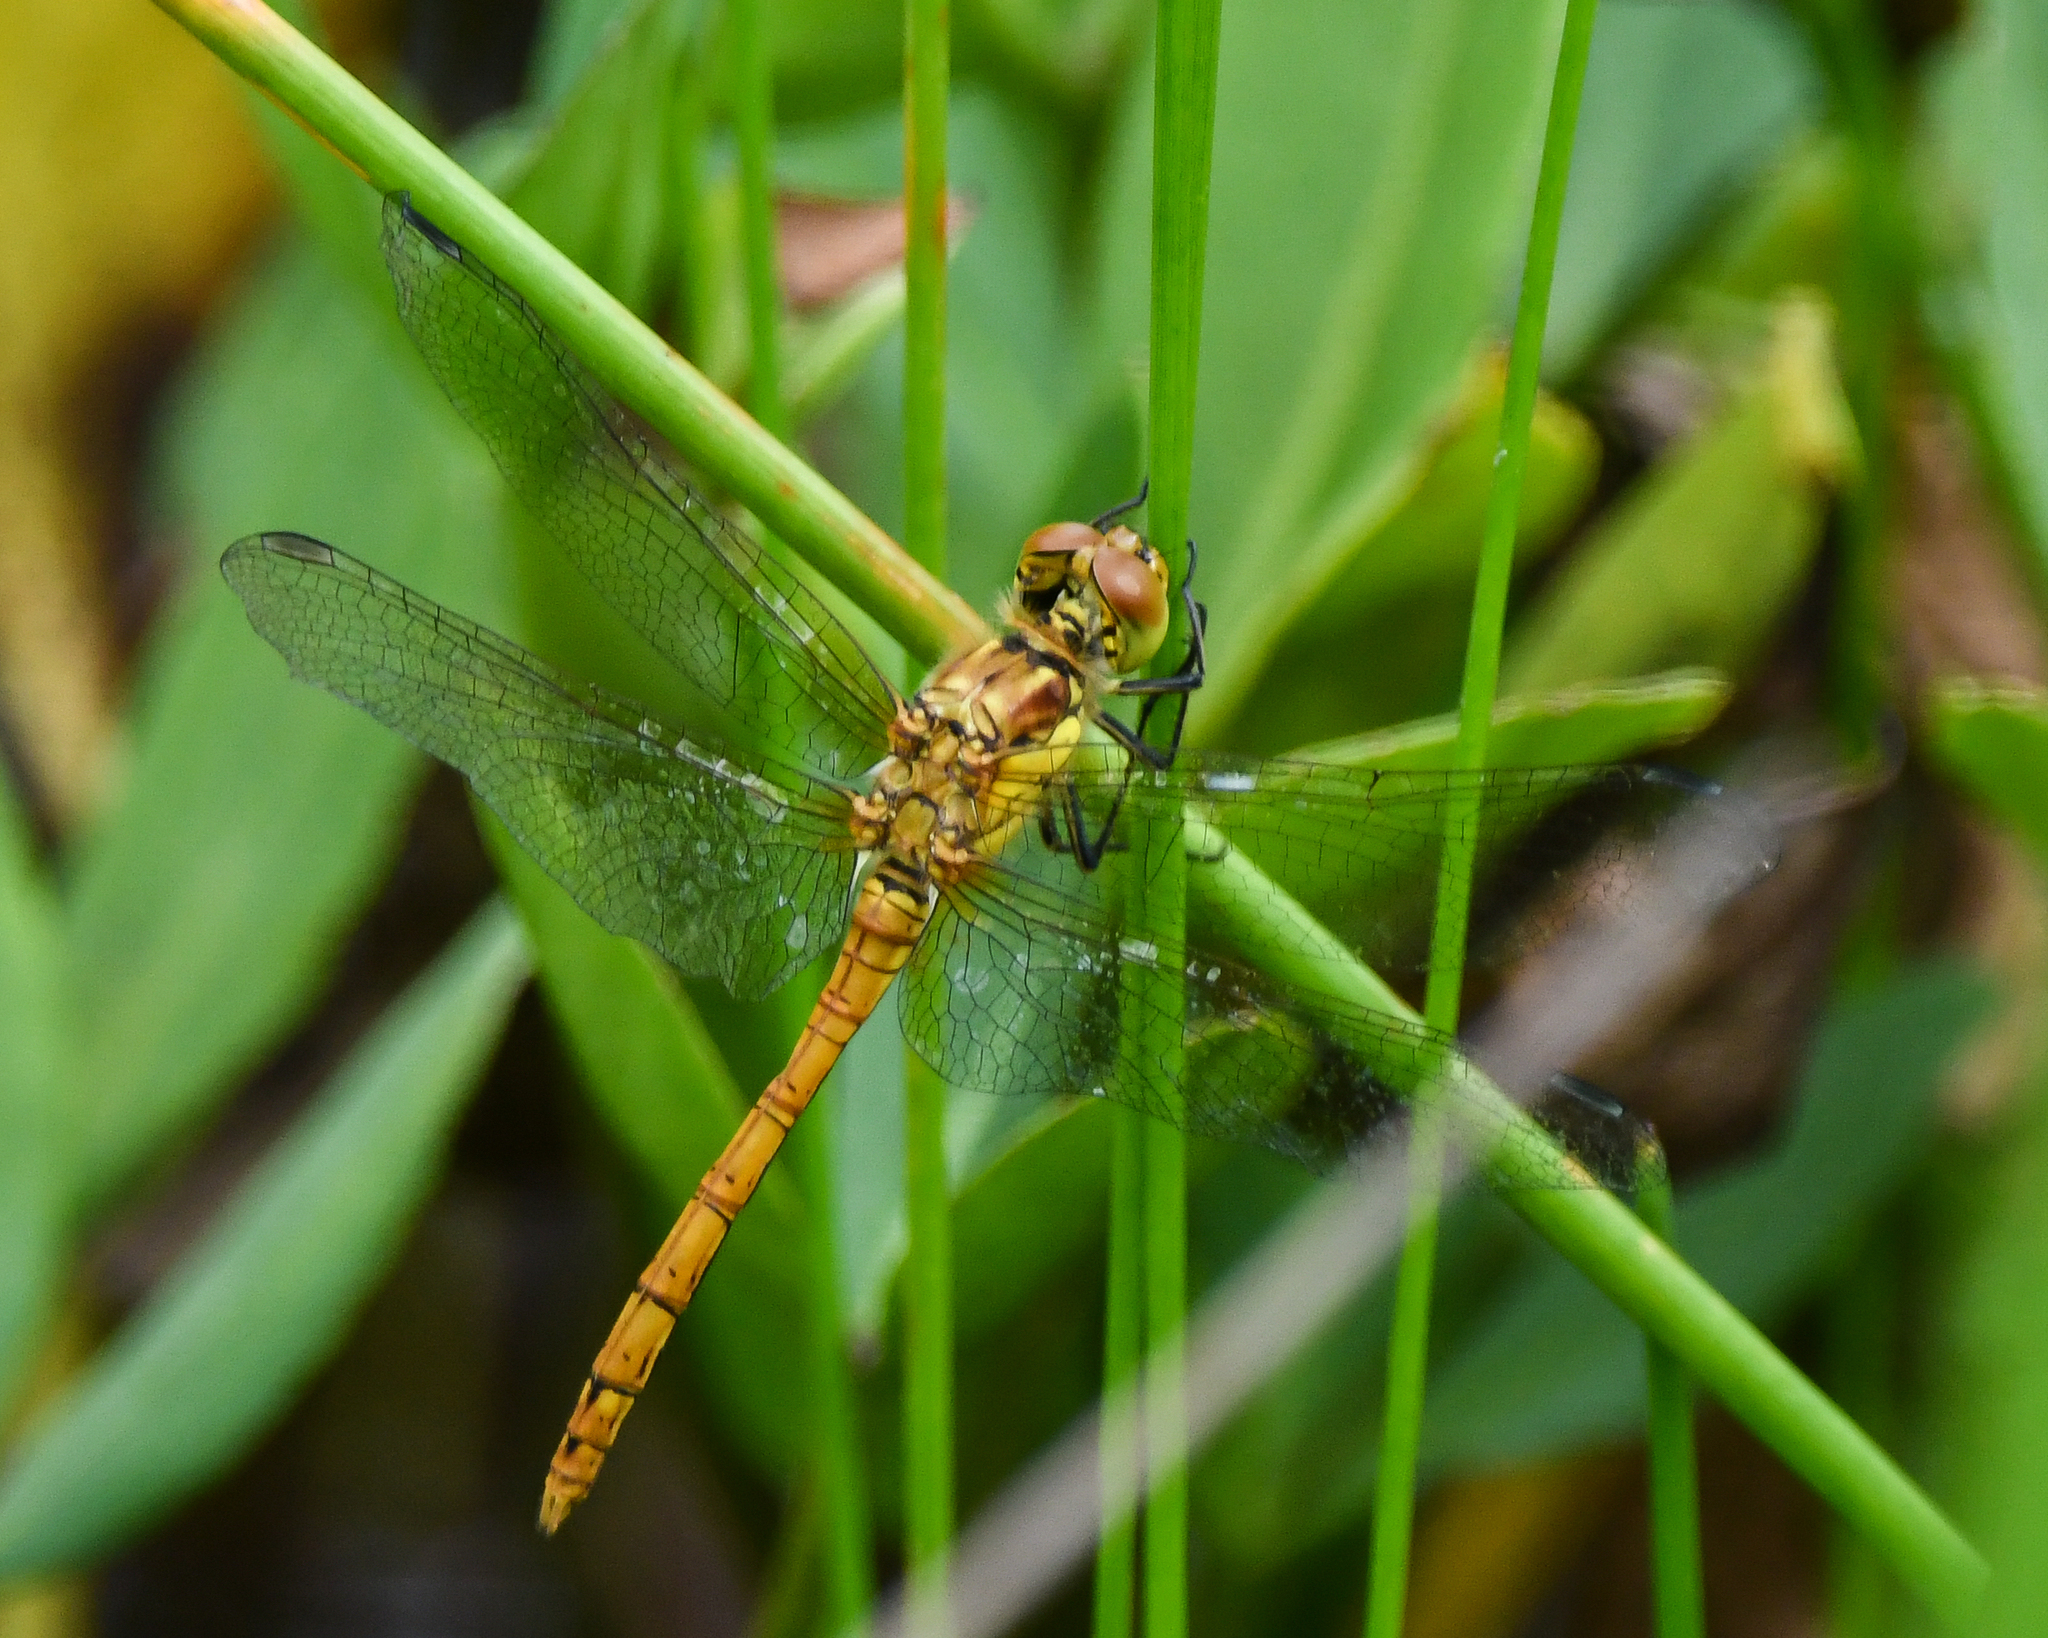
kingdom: Animalia
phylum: Arthropoda
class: Insecta
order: Odonata
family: Libellulidae
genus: Sympetrum
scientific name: Sympetrum striolatum
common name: Common darter
